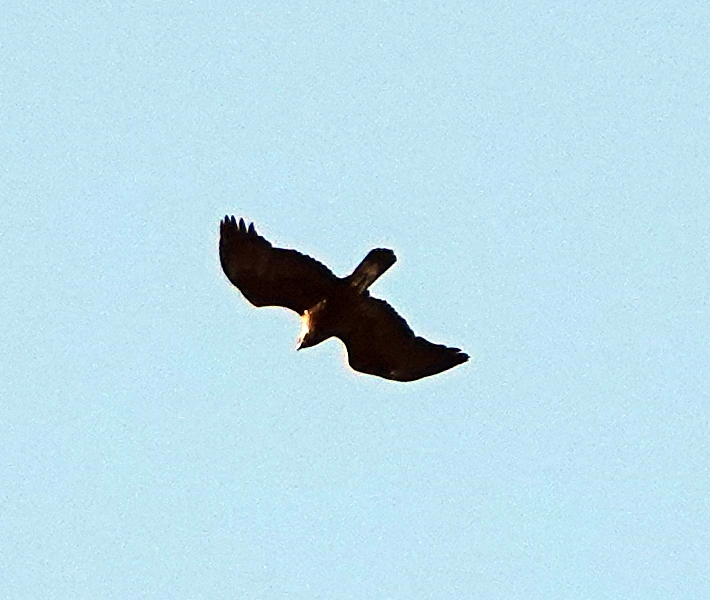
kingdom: Animalia
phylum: Chordata
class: Aves
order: Accipitriformes
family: Accipitridae
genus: Aquila
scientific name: Aquila chrysaetos
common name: Golden eagle
